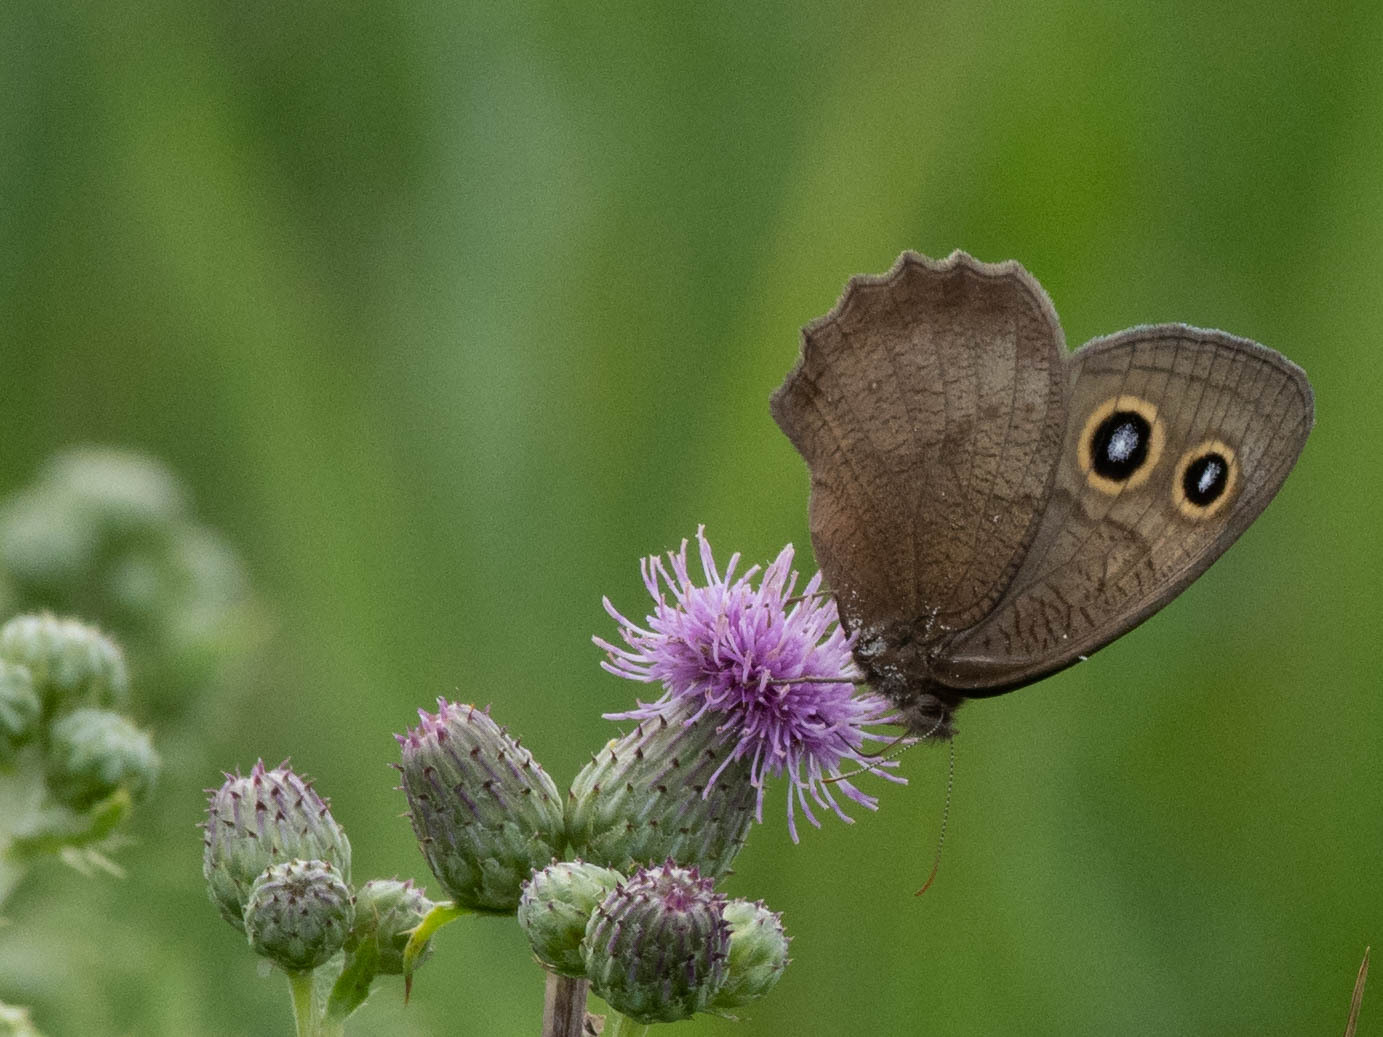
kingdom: Animalia
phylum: Arthropoda
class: Insecta
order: Lepidoptera
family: Nymphalidae
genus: Cercyonis
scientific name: Cercyonis pegala
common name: Common wood-nymph
